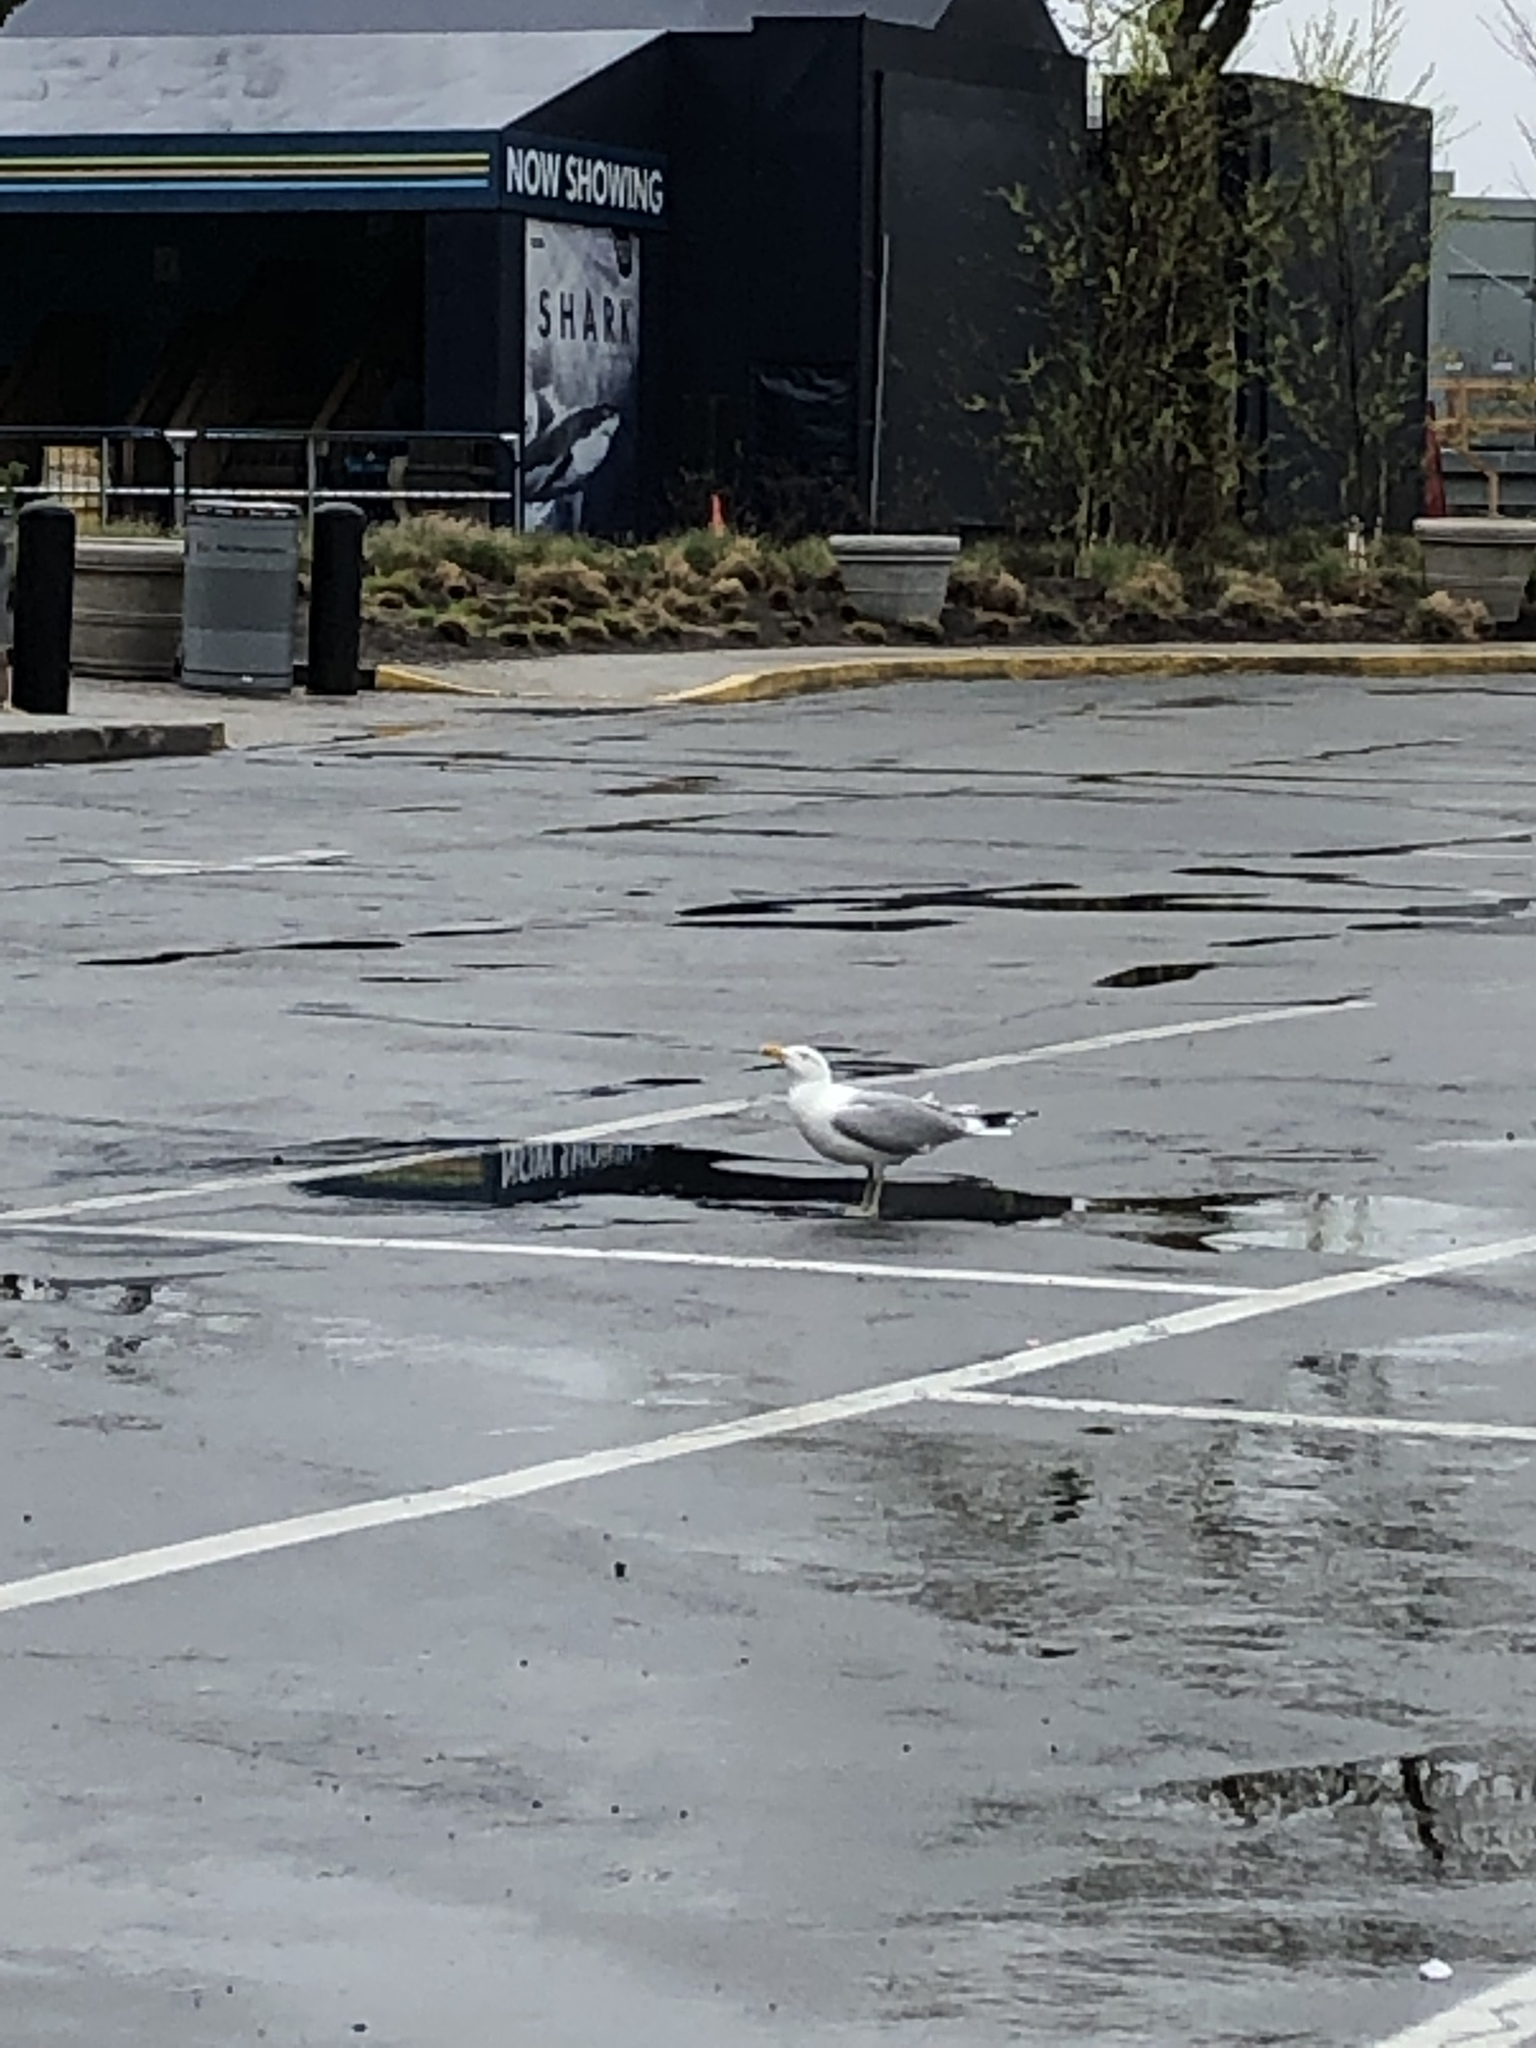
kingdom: Animalia
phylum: Chordata
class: Aves
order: Charadriiformes
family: Laridae
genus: Larus
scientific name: Larus argentatus
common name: Herring gull
